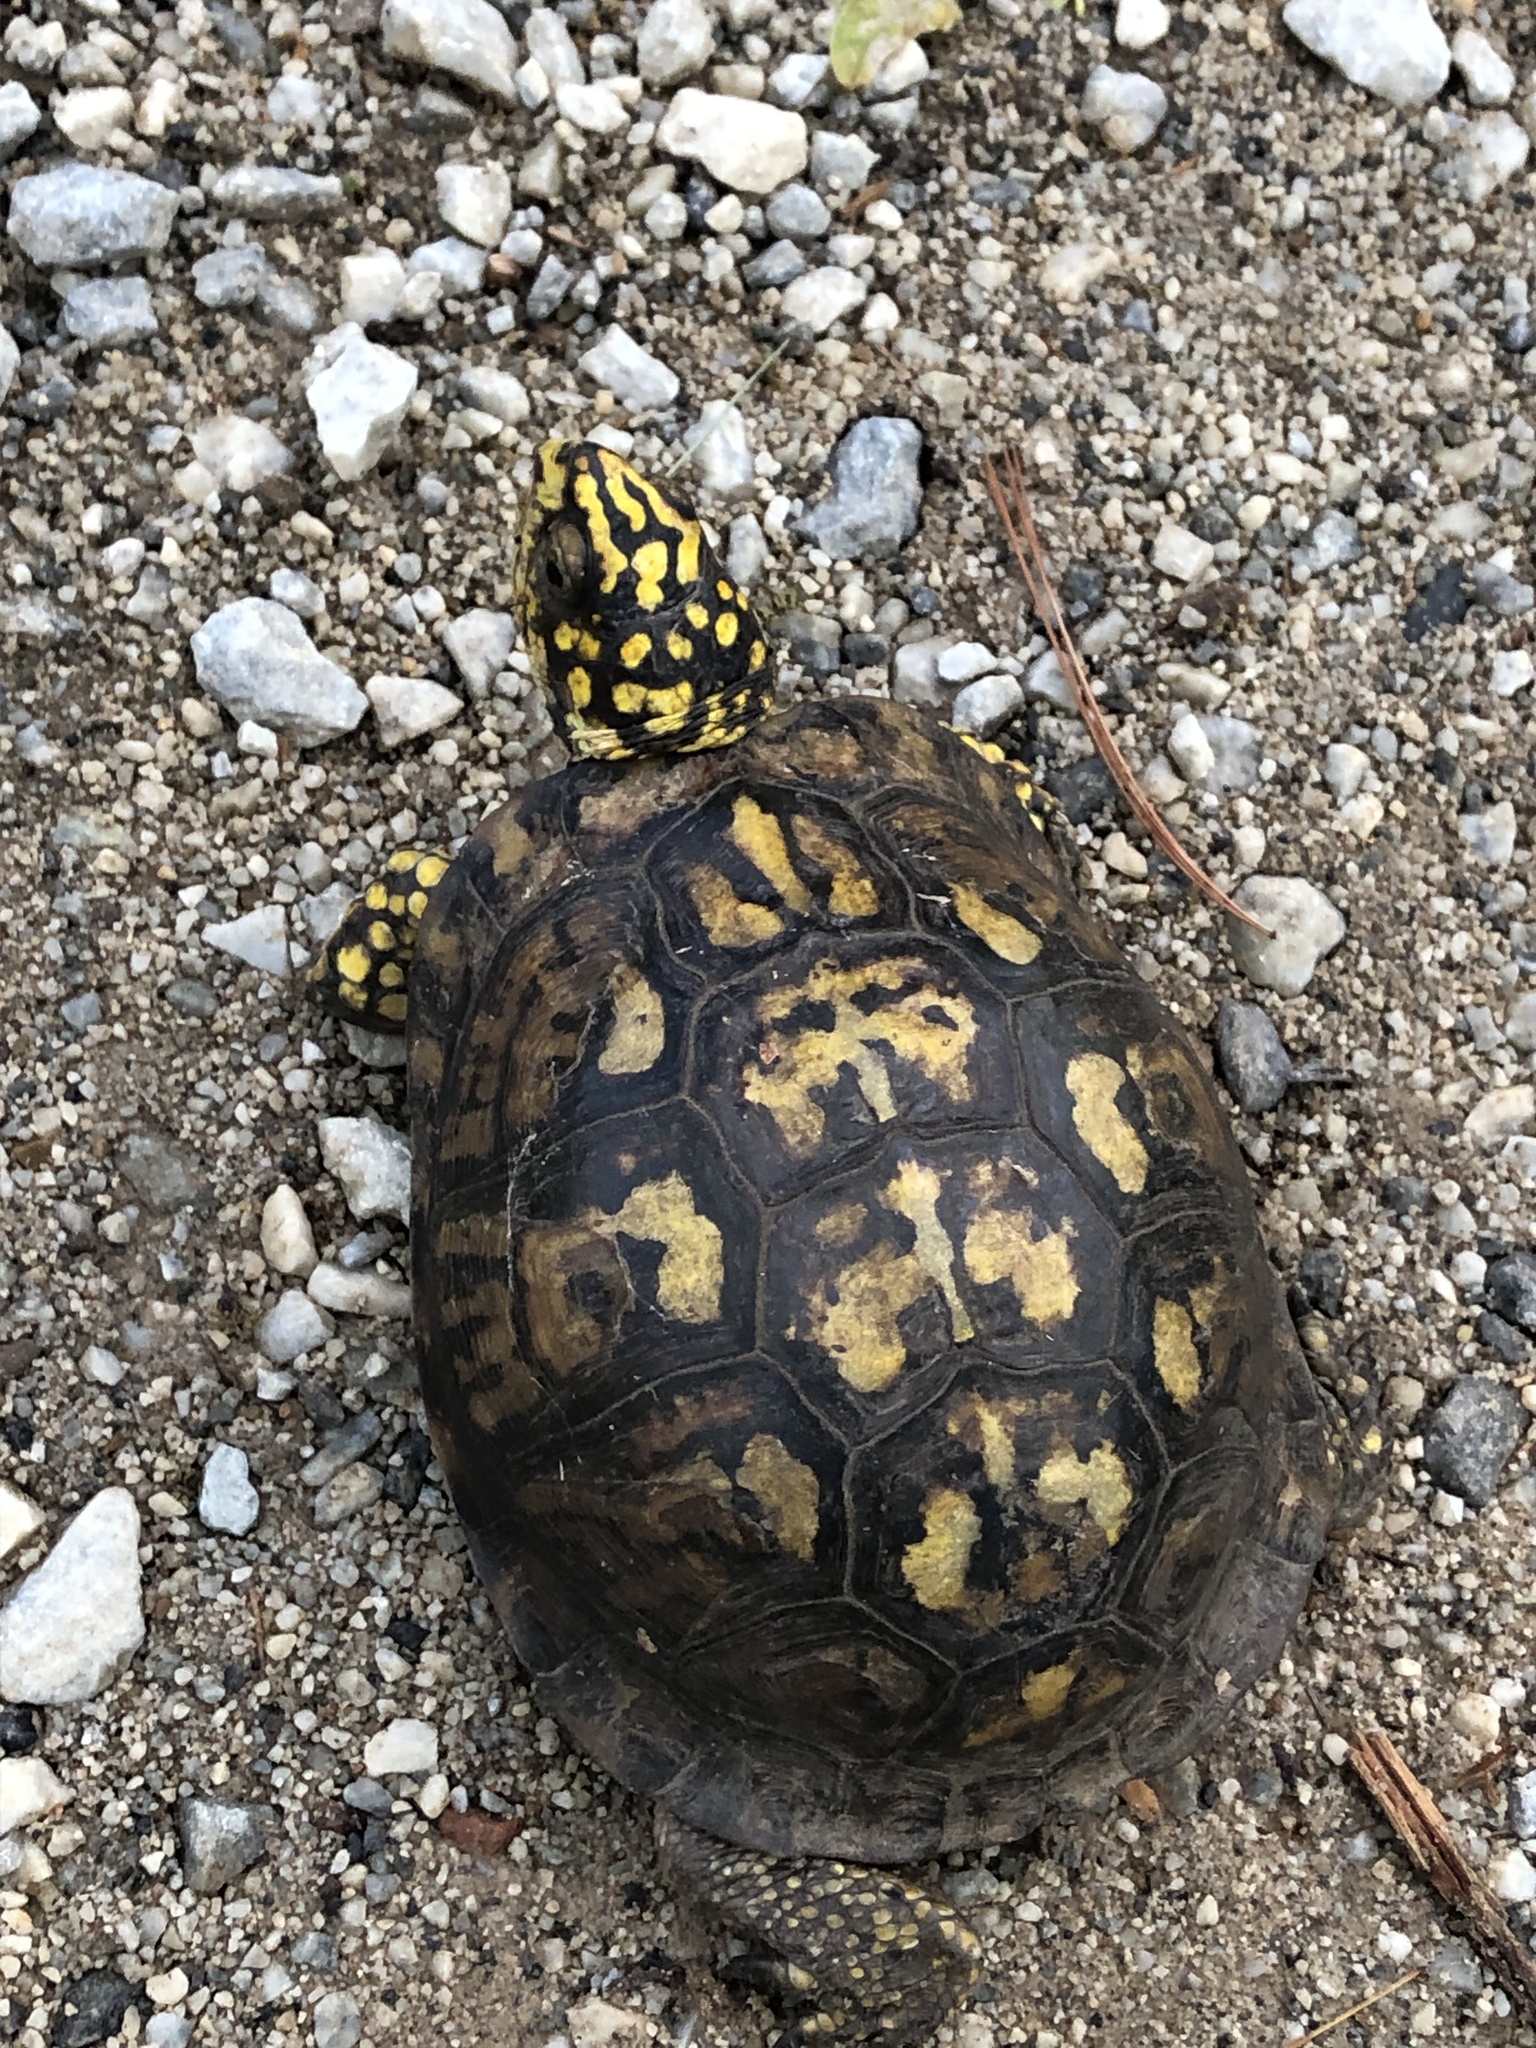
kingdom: Animalia
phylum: Chordata
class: Testudines
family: Emydidae
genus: Terrapene
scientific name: Terrapene carolina
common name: Common box turtle
